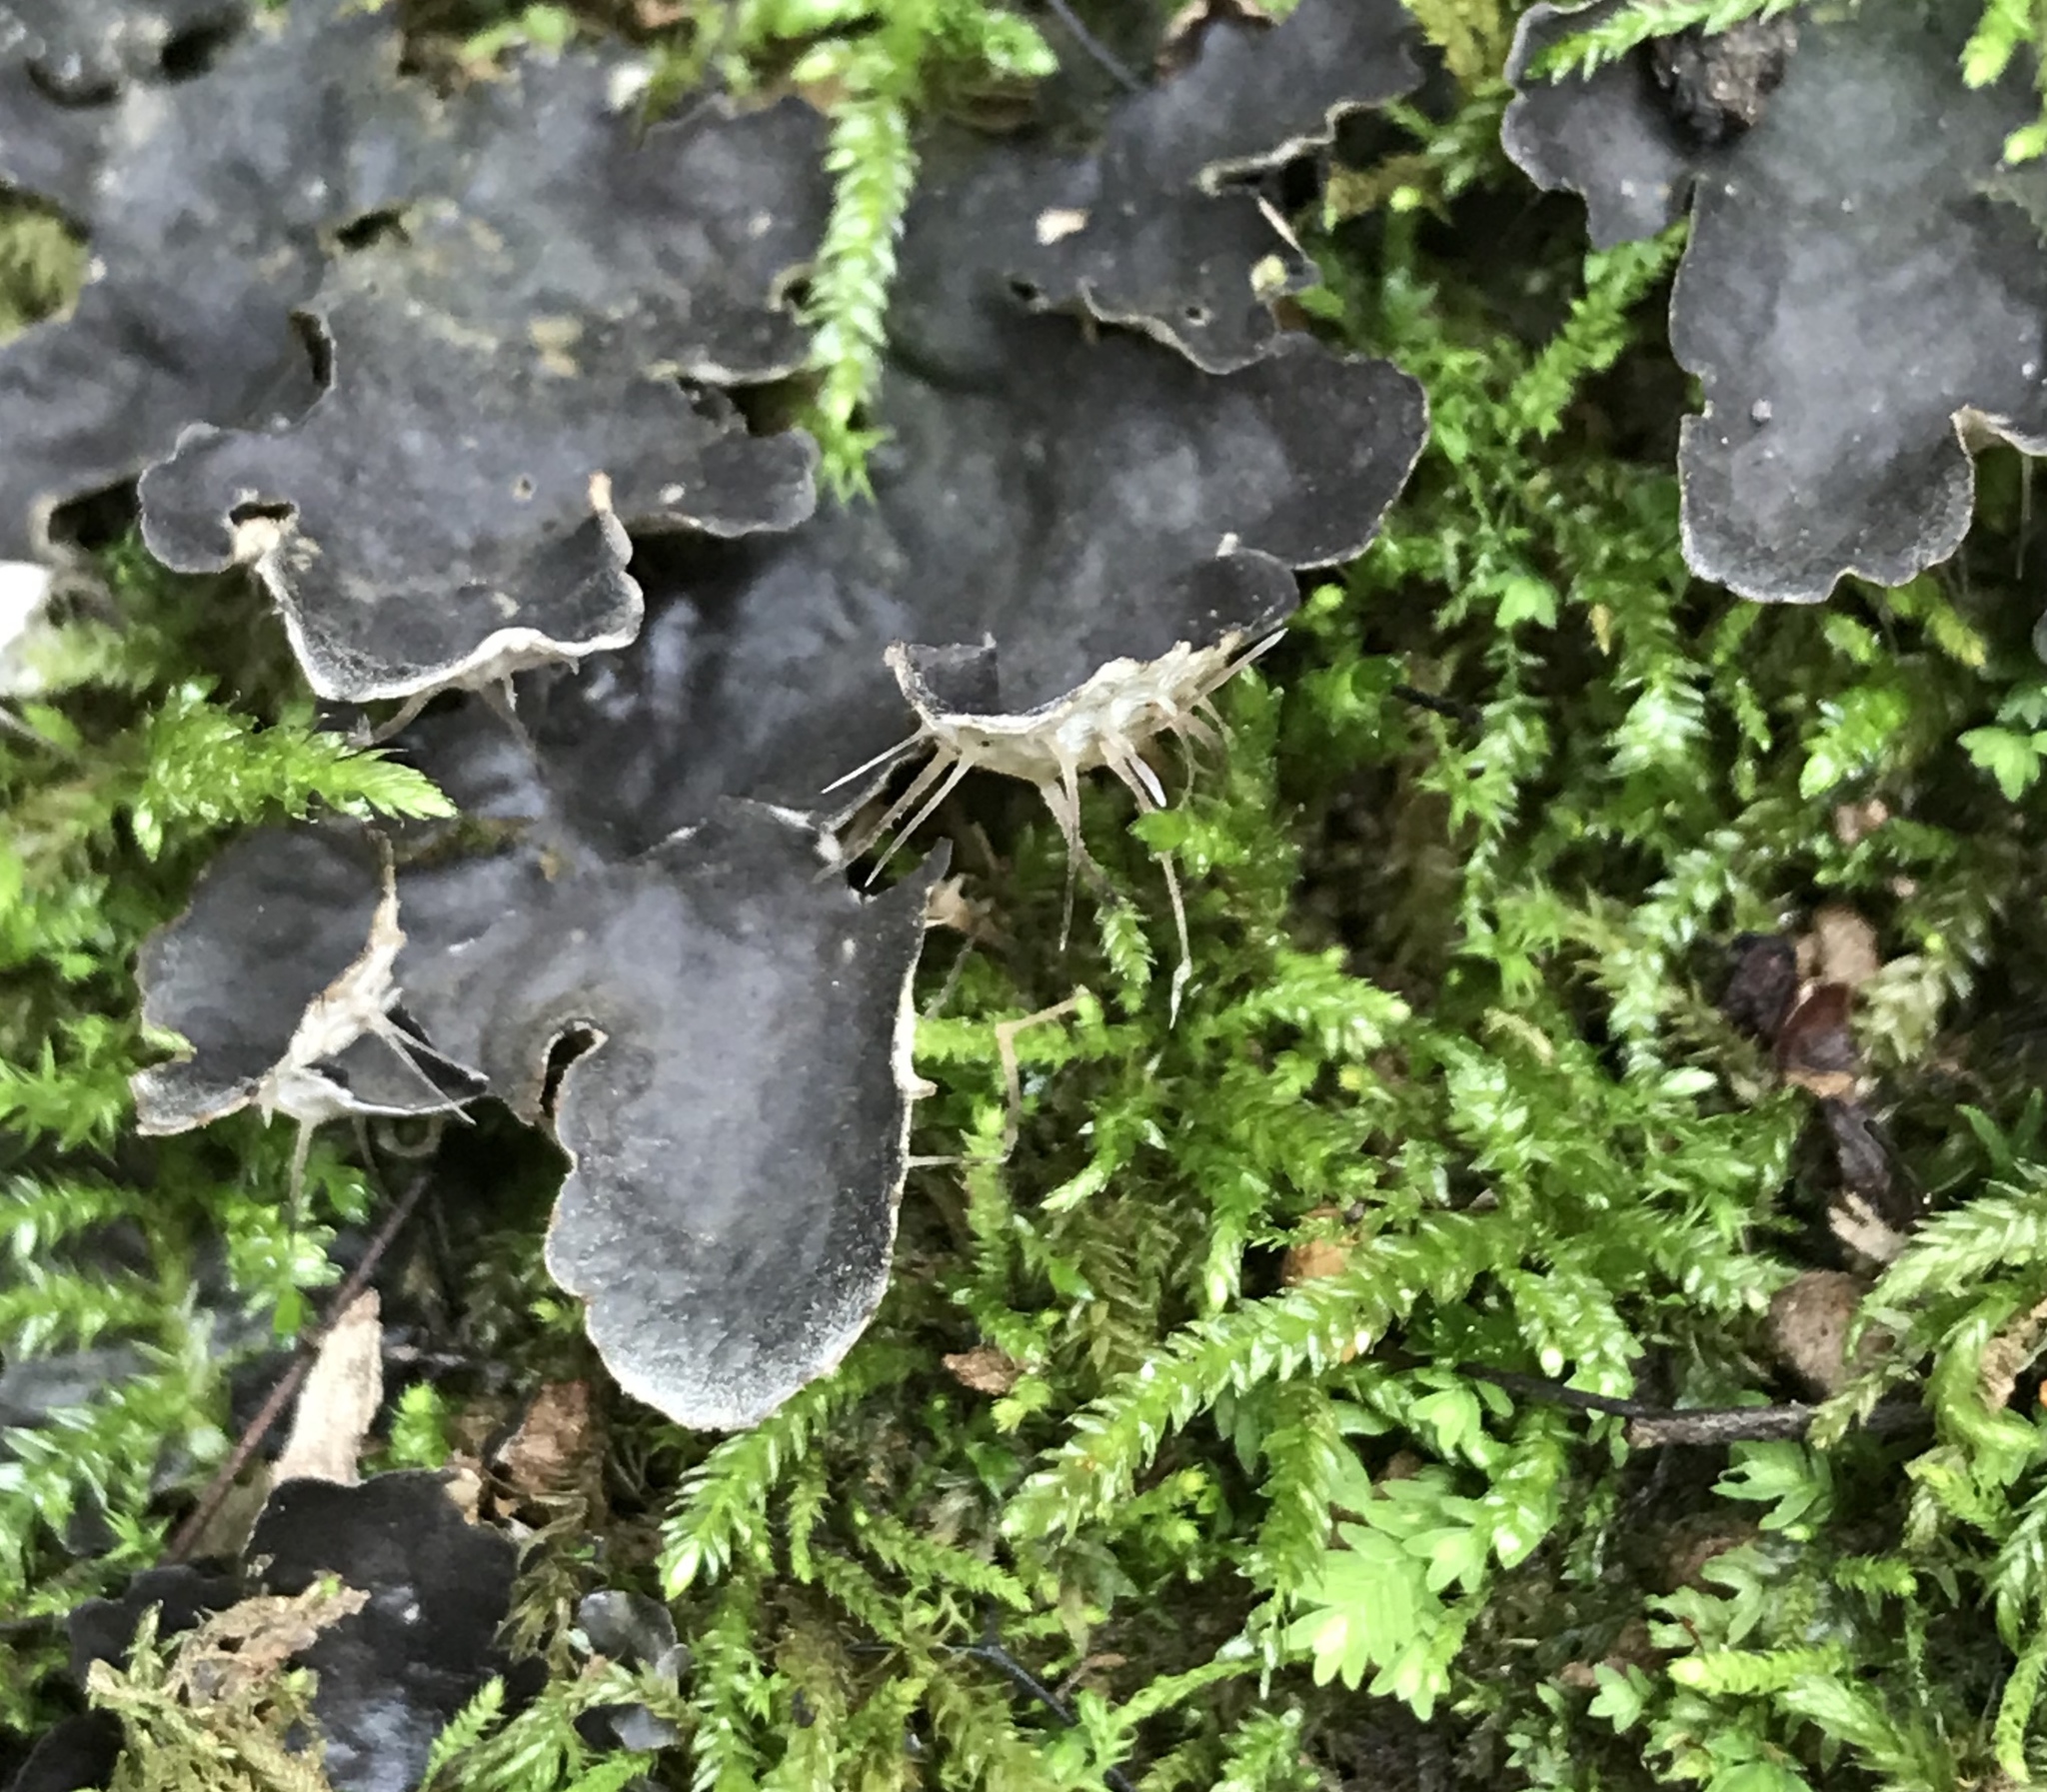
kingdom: Fungi
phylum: Ascomycota
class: Lecanoromycetes
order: Peltigerales
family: Peltigeraceae
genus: Peltigera
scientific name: Peltigera membranacea
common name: Membranous pelt lichen
